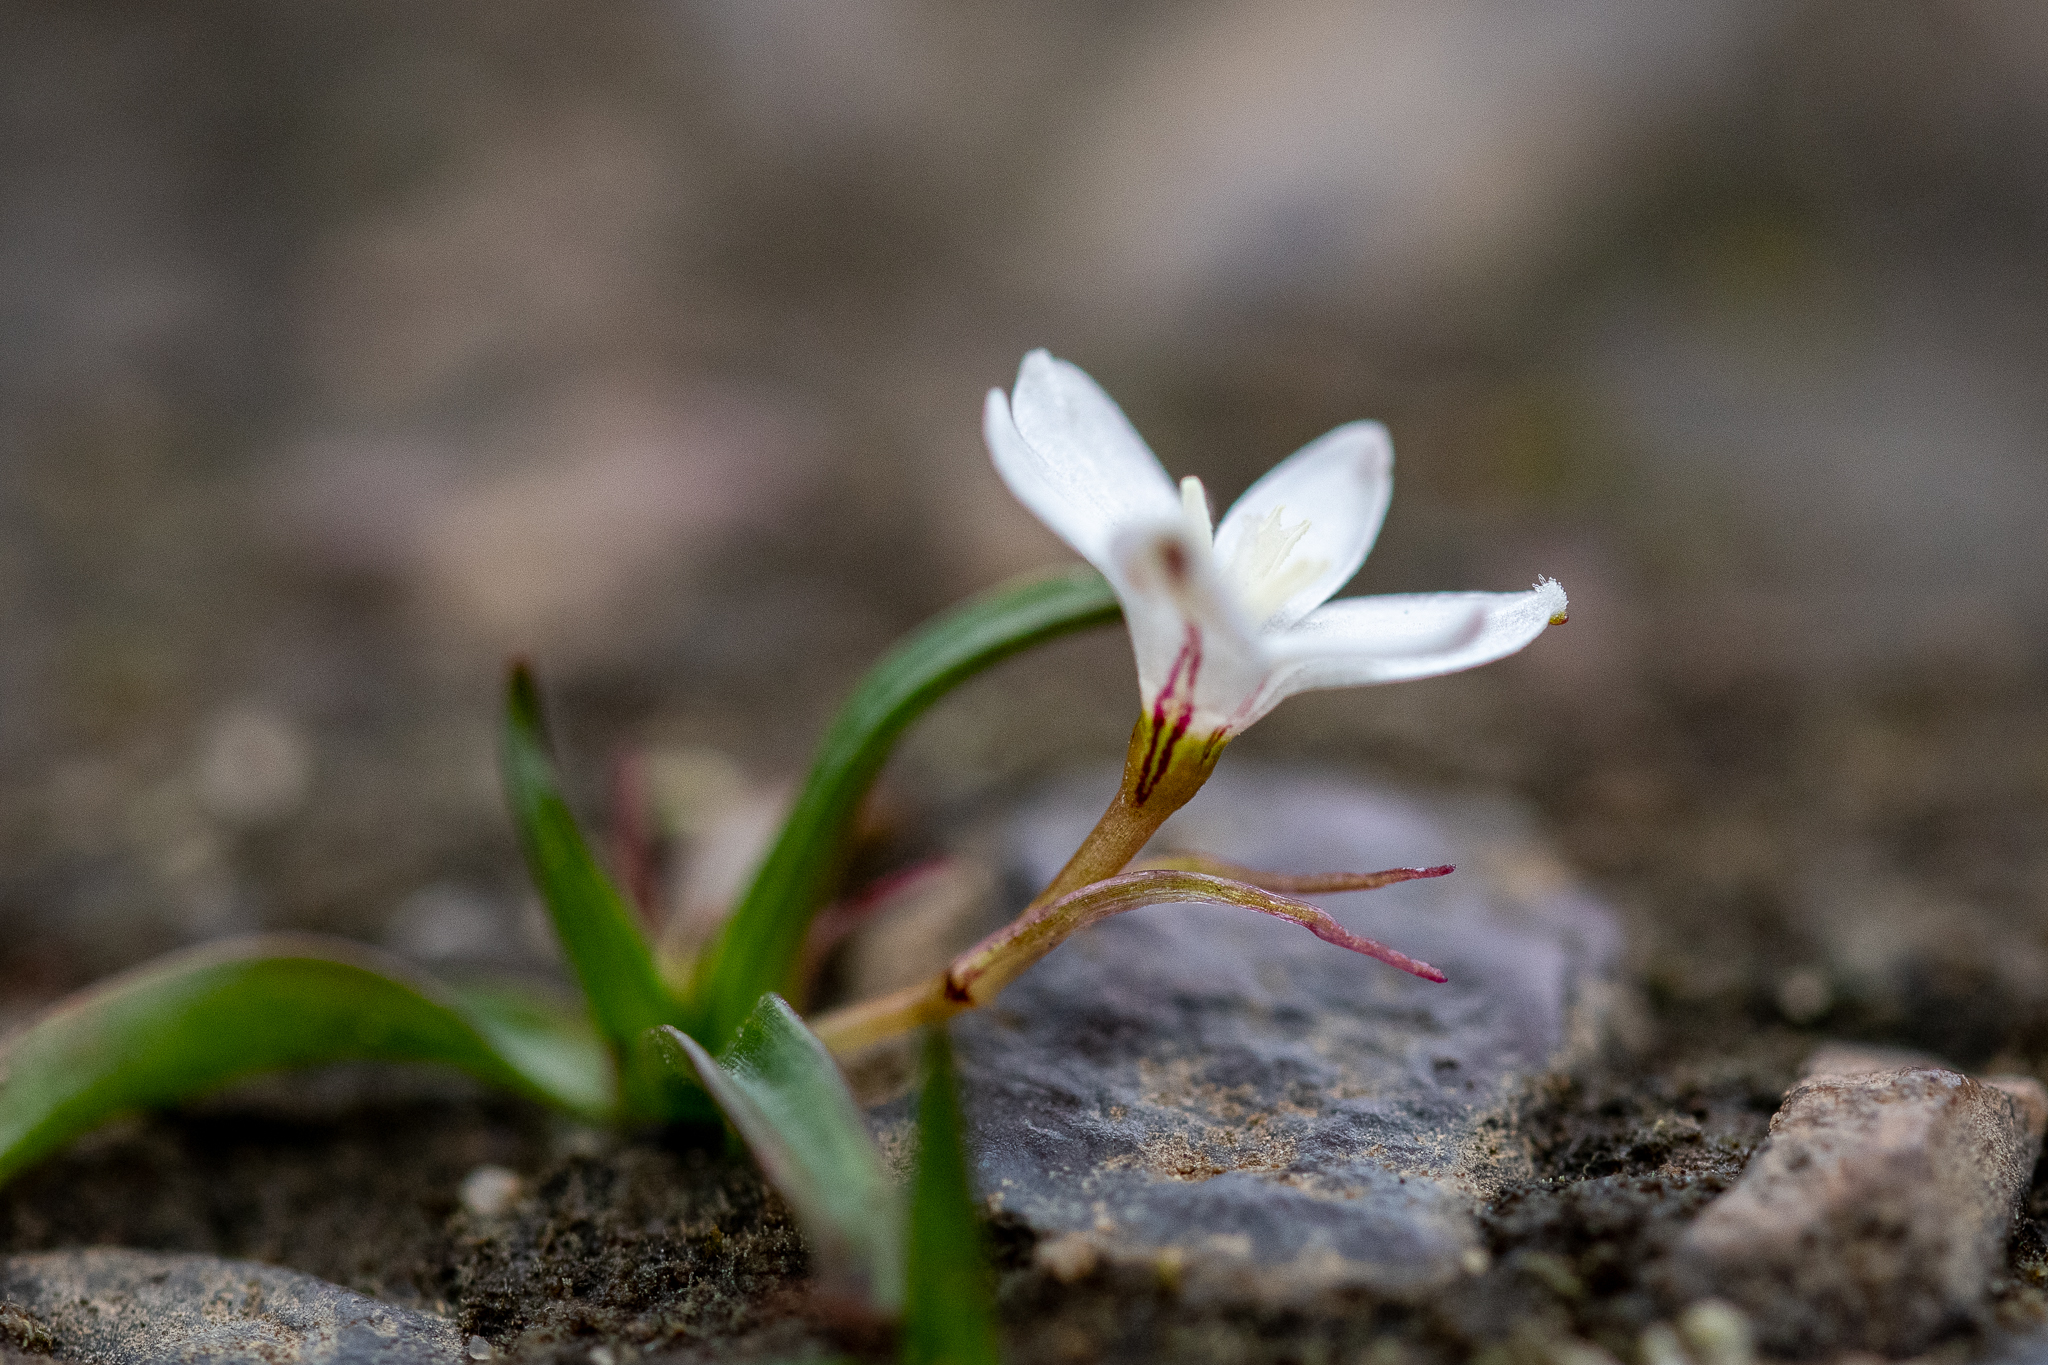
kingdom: Plantae
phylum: Tracheophyta
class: Liliopsida
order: Asparagales
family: Hypoxidaceae
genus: Pauridia
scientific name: Pauridia minuta
